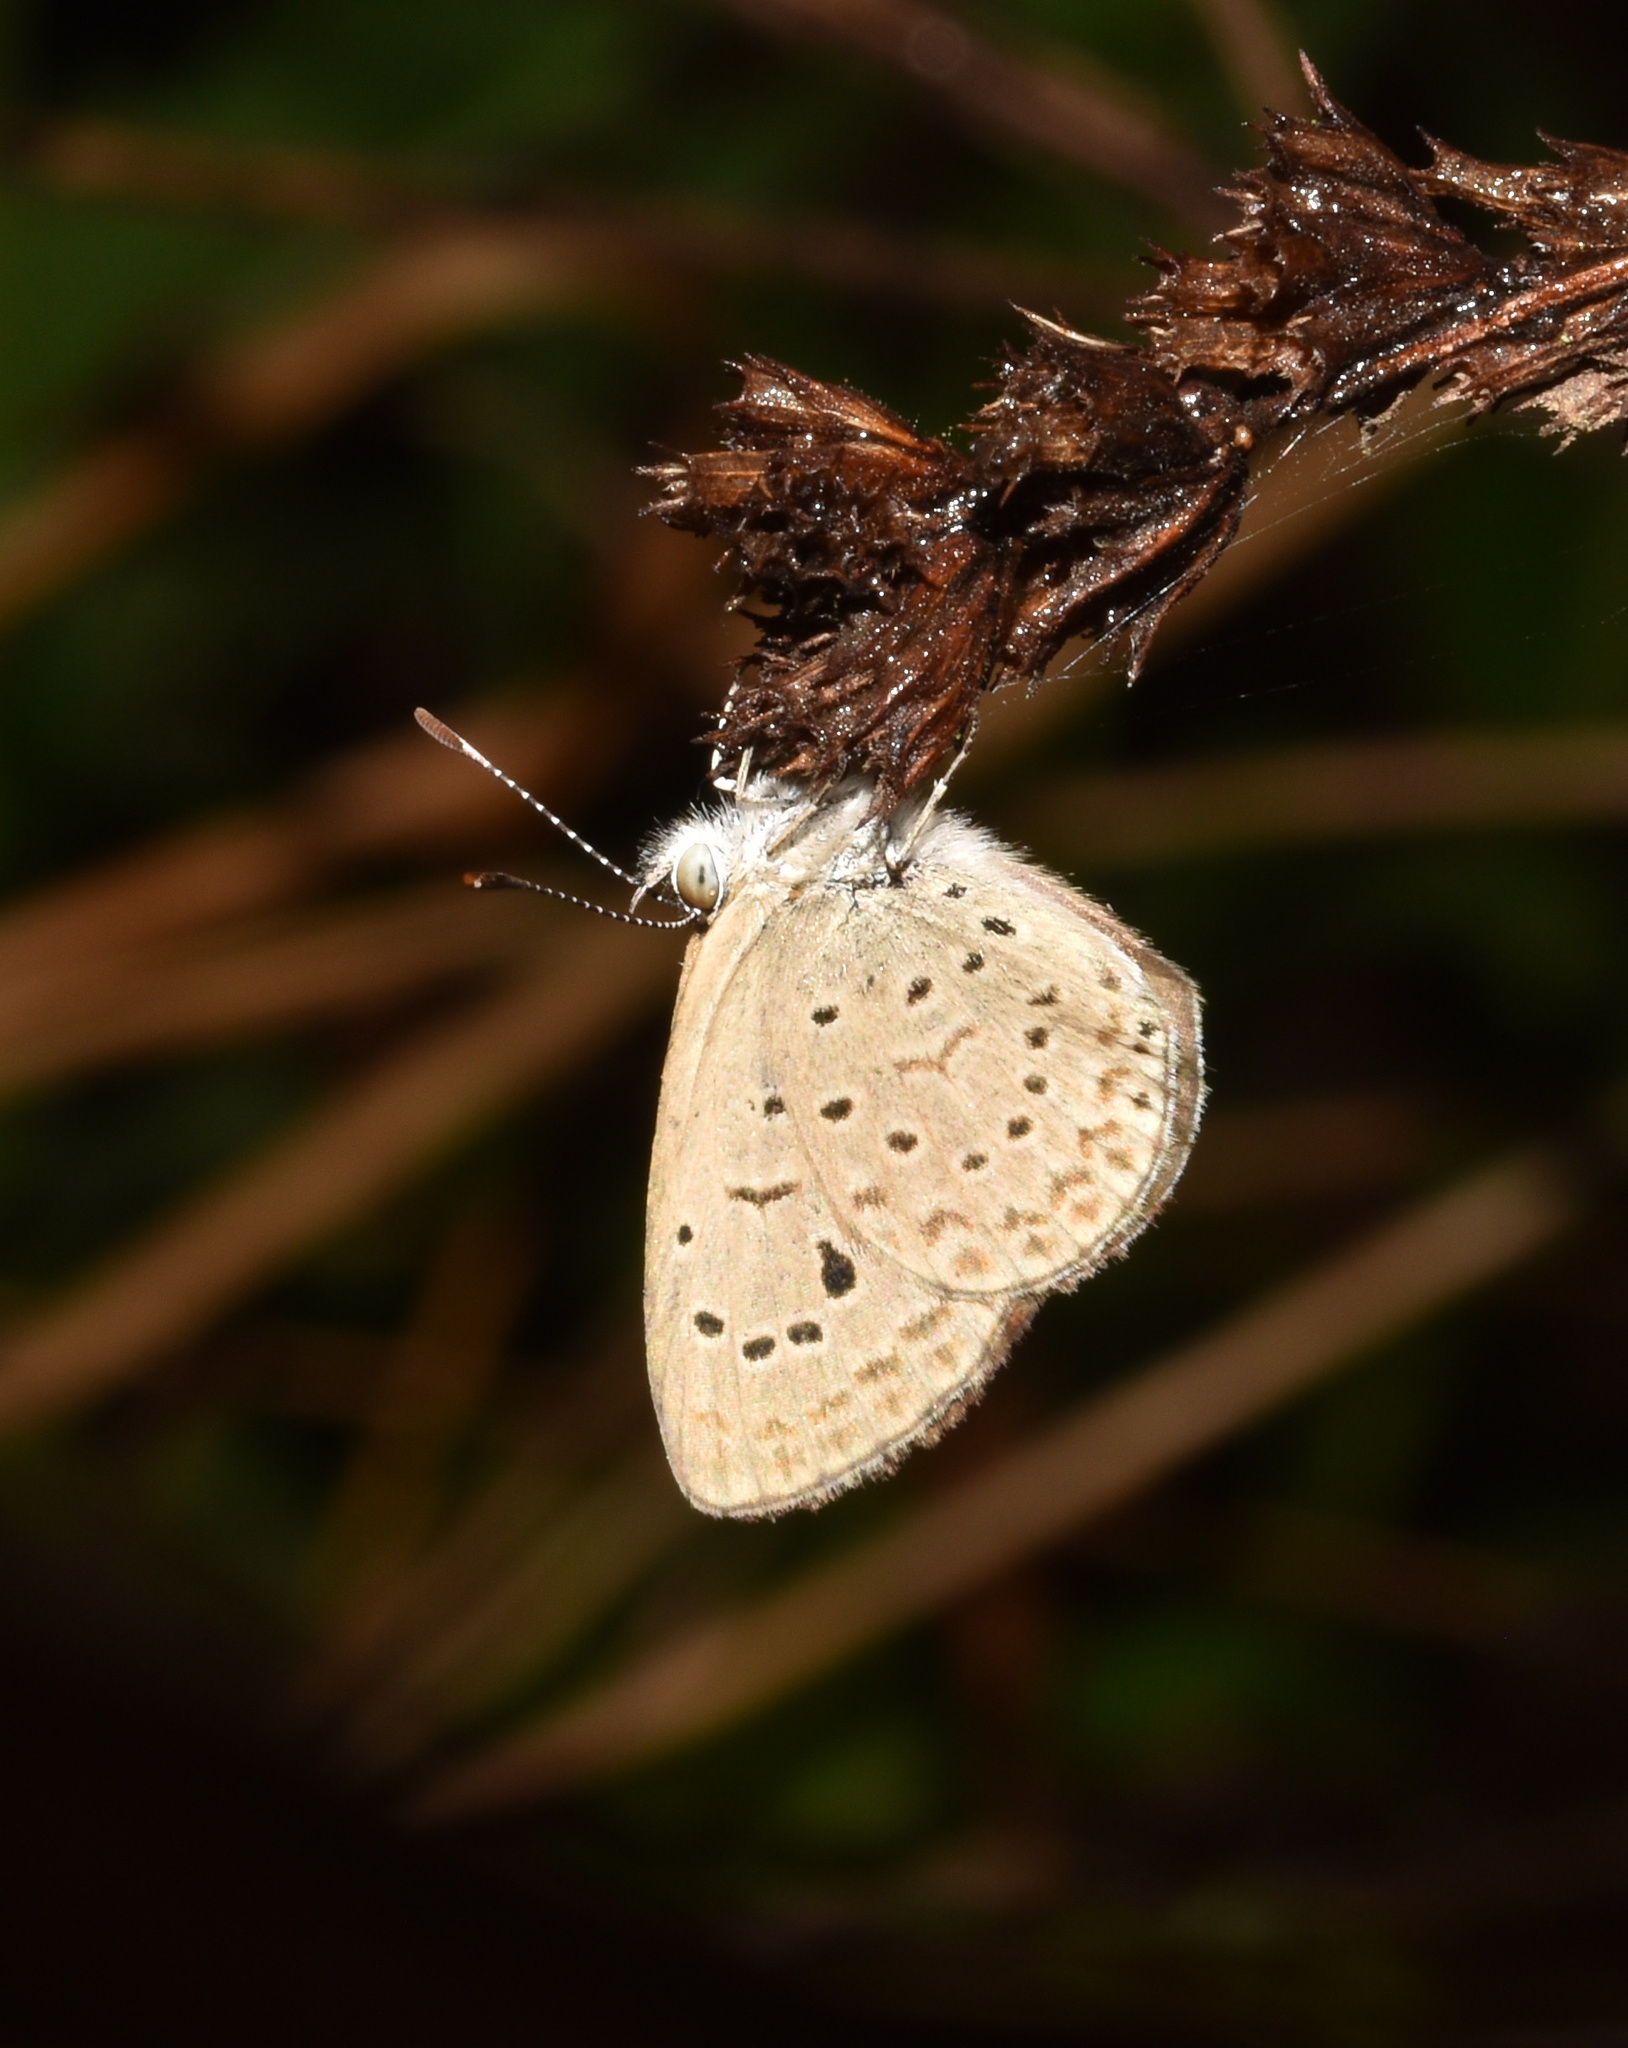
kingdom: Animalia
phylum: Arthropoda
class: Insecta
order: Lepidoptera
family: Lycaenidae
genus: Zizeeria
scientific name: Zizeeria knysna
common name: African grass blue
